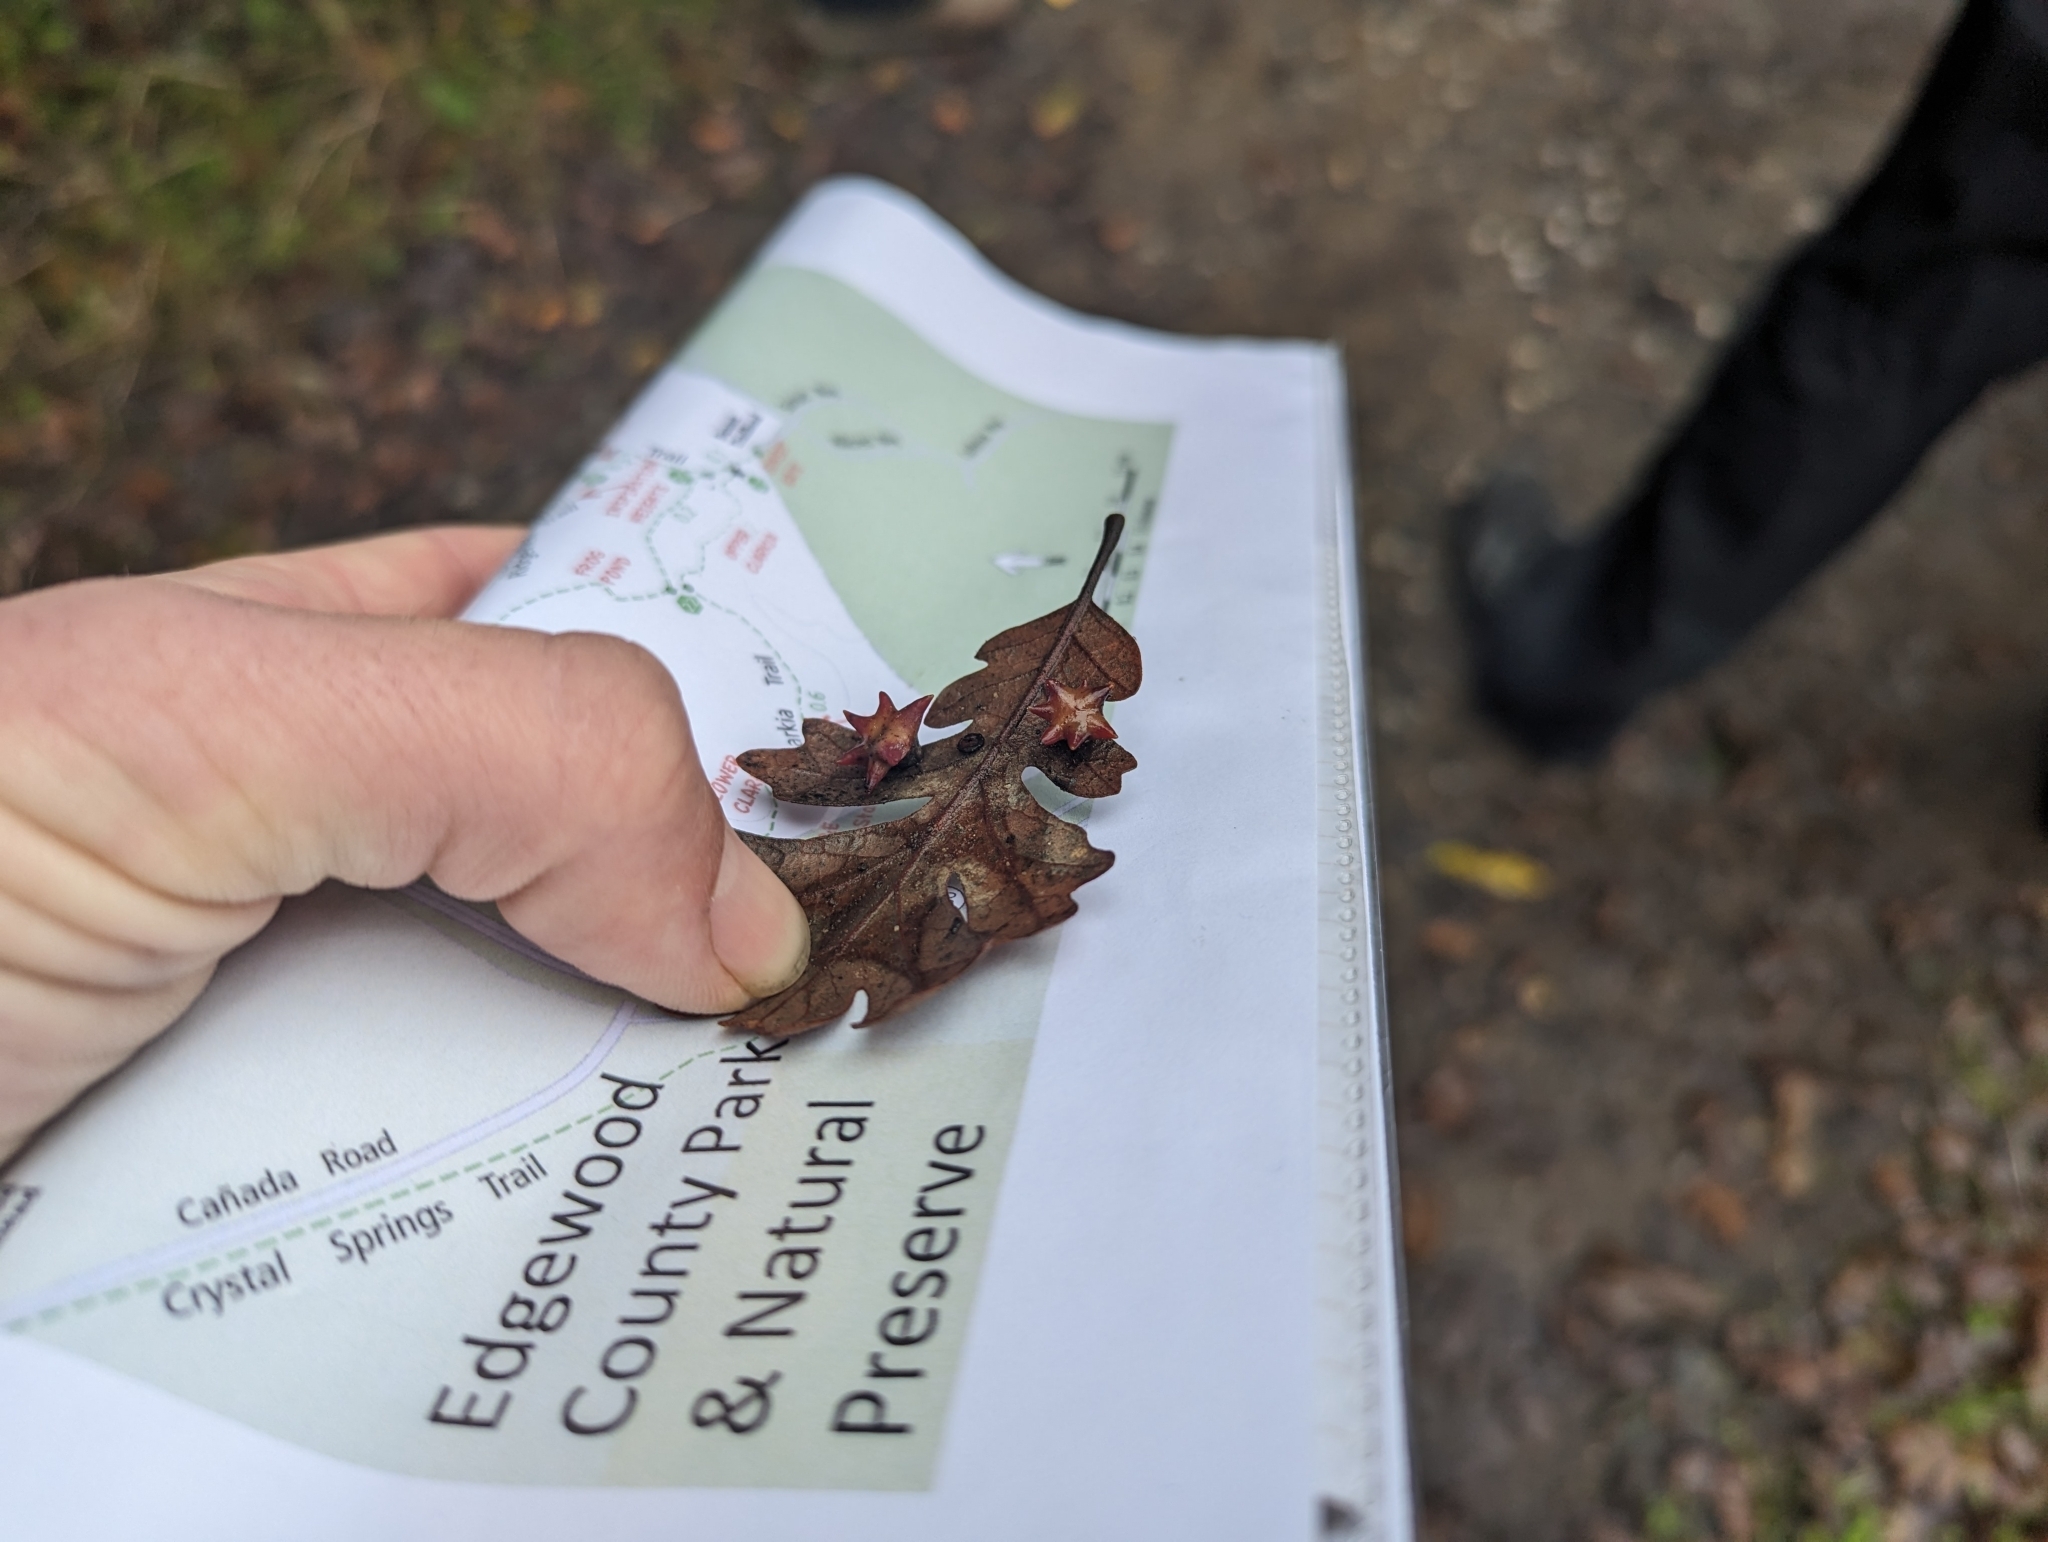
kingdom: Animalia
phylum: Arthropoda
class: Insecta
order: Hymenoptera
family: Cynipidae
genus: Cynips
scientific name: Cynips douglasi
